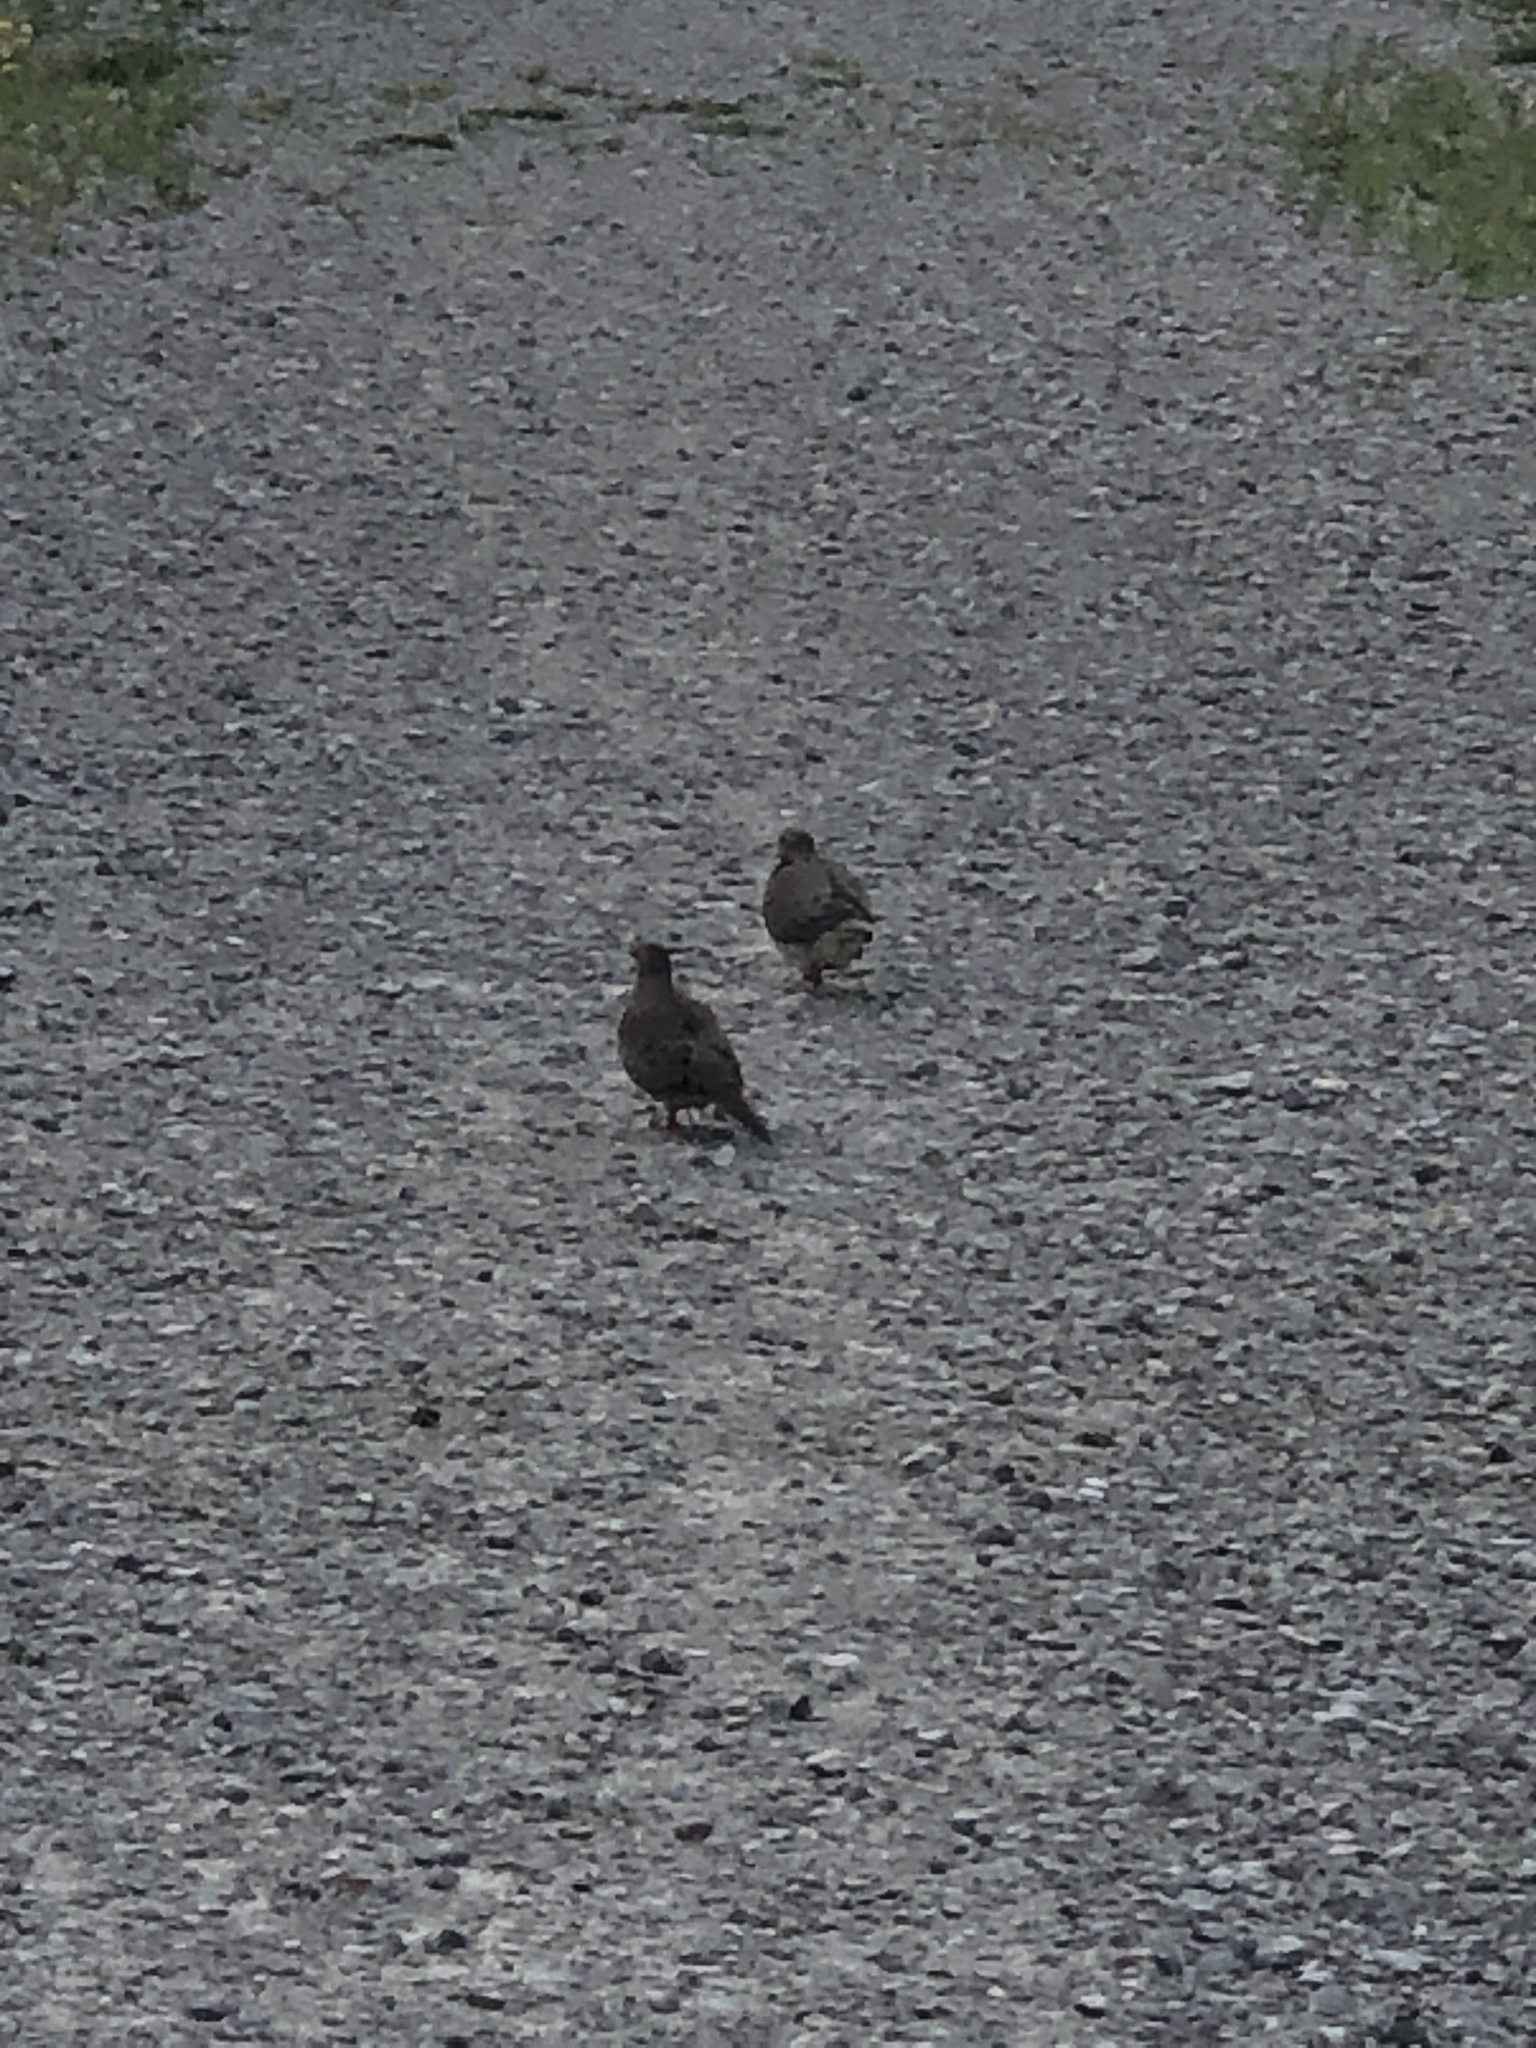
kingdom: Animalia
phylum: Chordata
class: Aves
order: Columbiformes
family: Columbidae
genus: Zenaida
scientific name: Zenaida macroura
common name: Mourning dove
